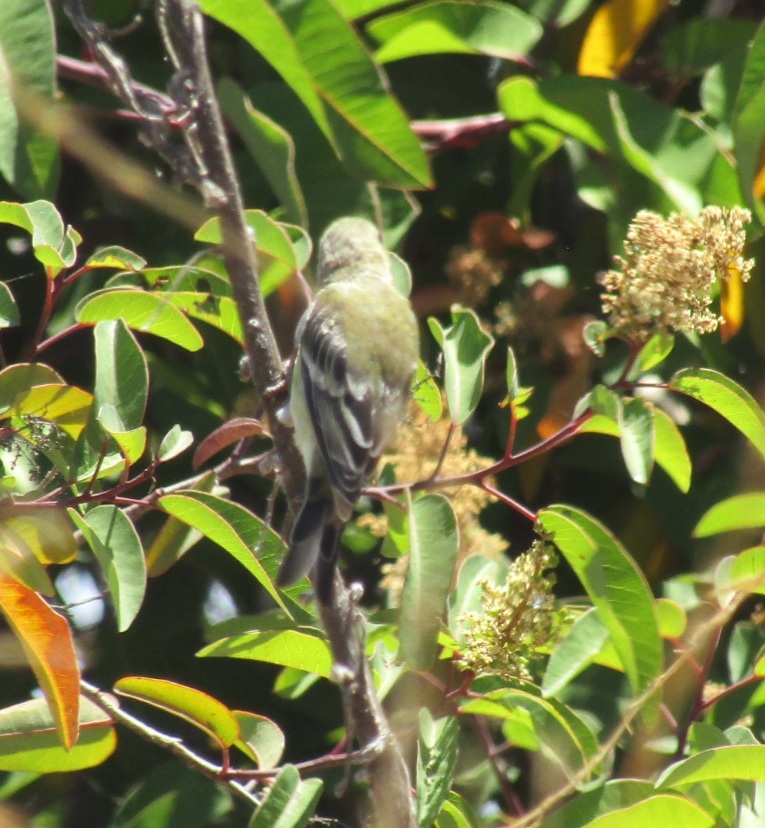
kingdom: Animalia
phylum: Chordata
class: Aves
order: Passeriformes
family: Fringillidae
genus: Spinus
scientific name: Spinus psaltria
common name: Lesser goldfinch
